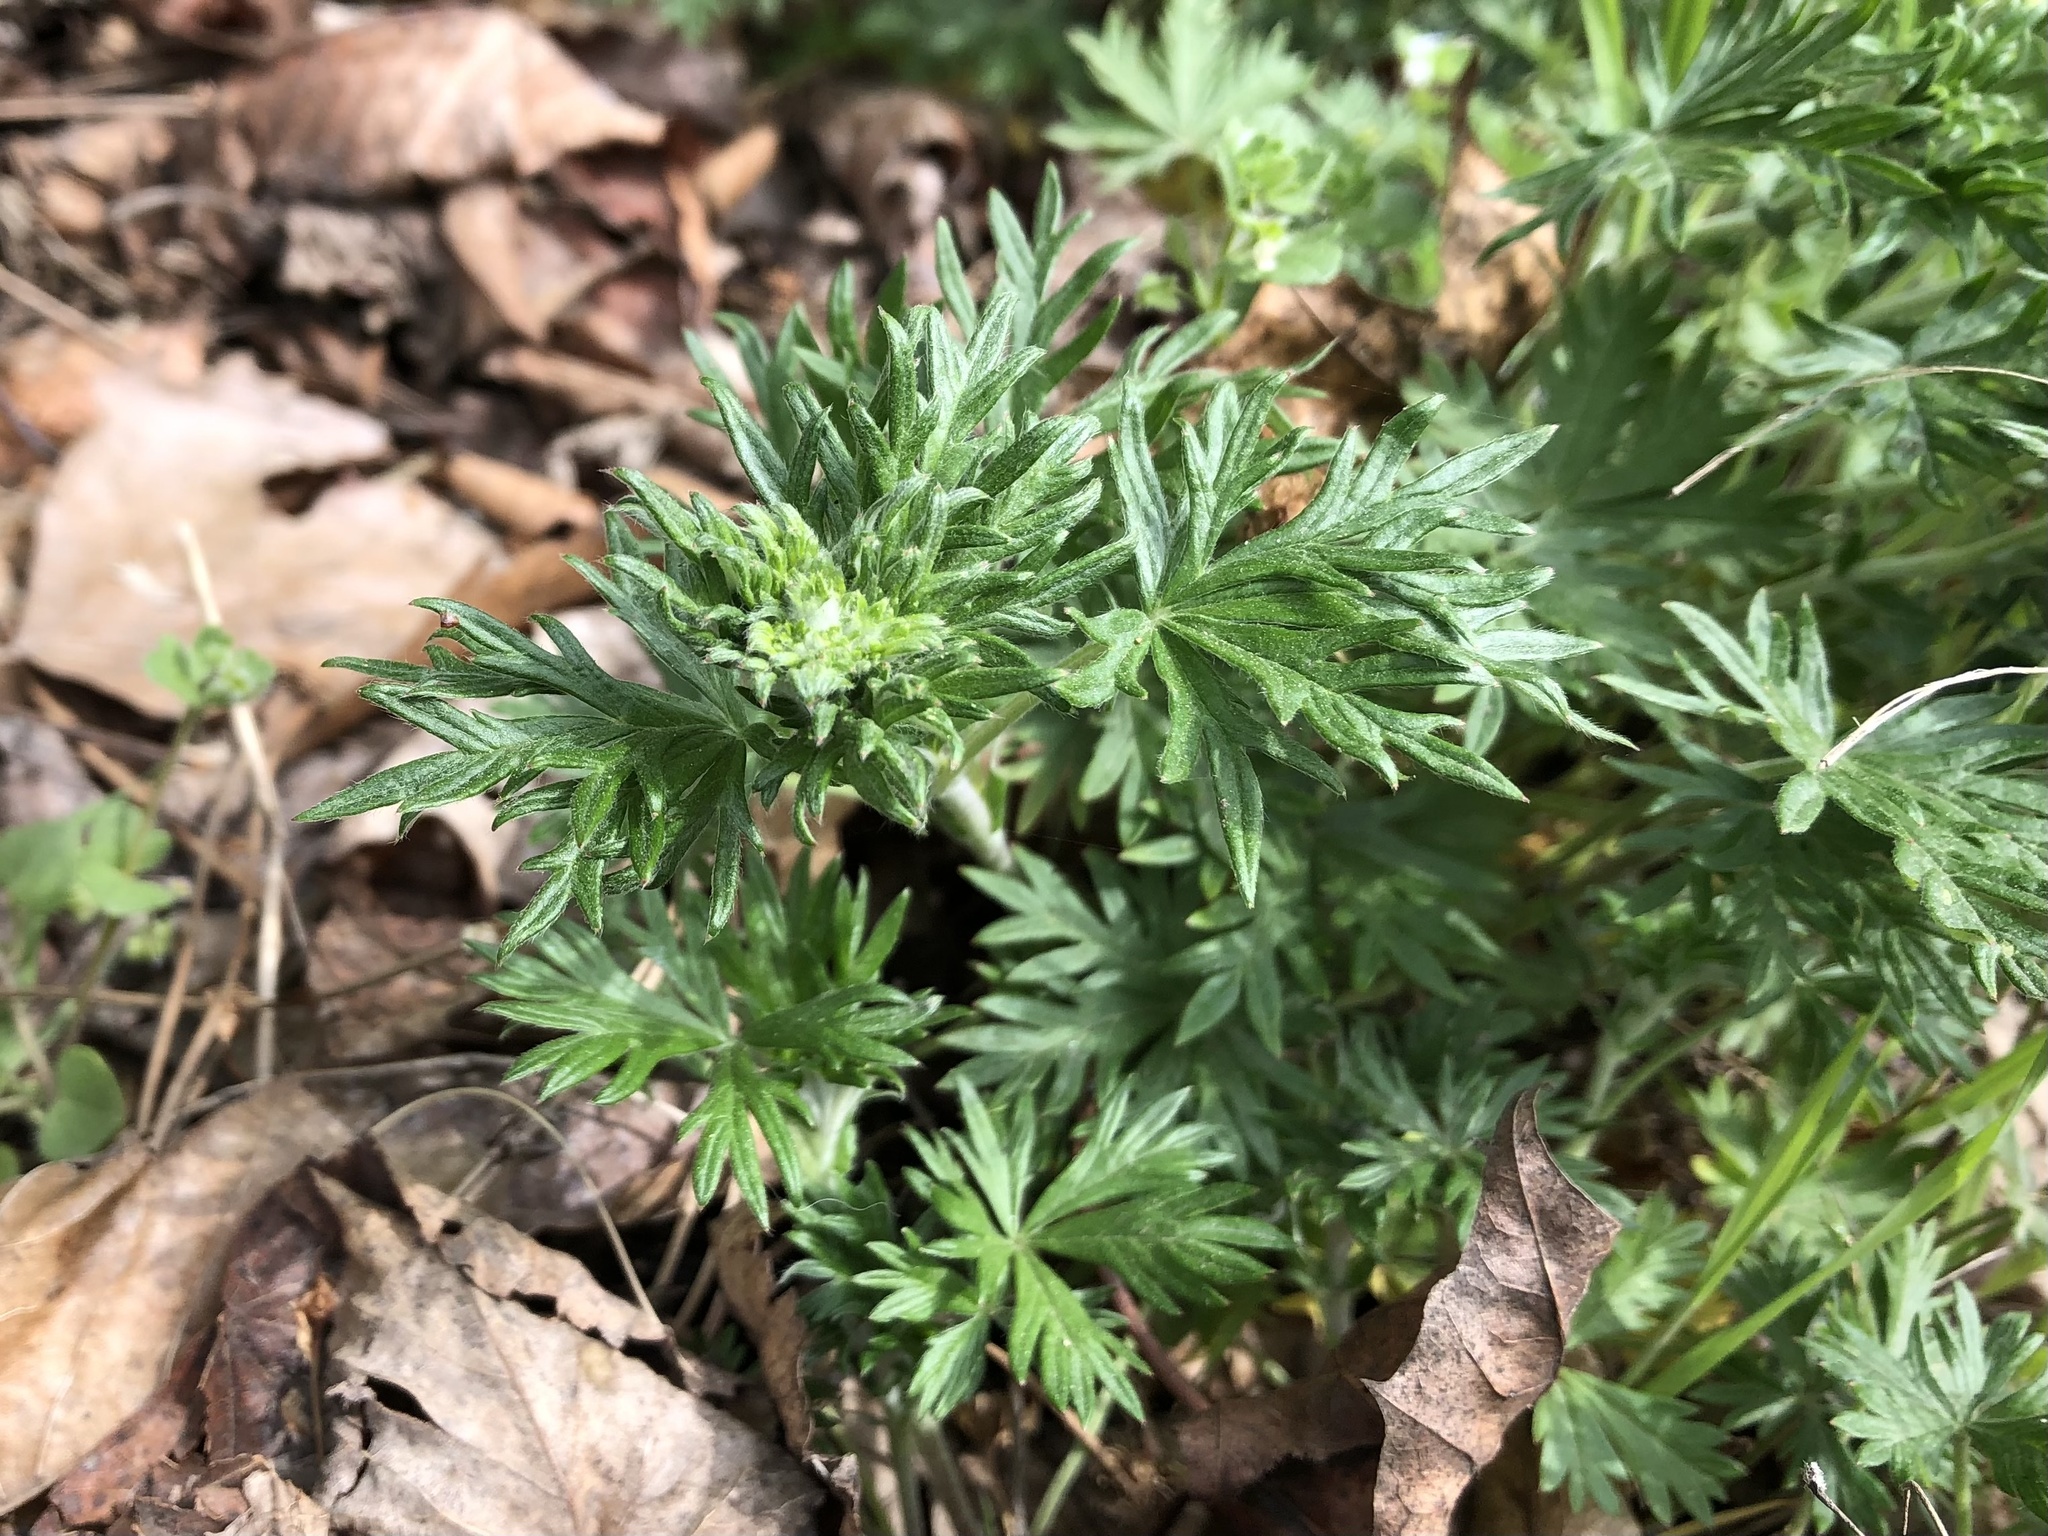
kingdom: Plantae
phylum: Tracheophyta
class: Magnoliopsida
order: Rosales
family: Rosaceae
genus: Potentilla
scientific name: Potentilla argentea
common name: Hoary cinquefoil
